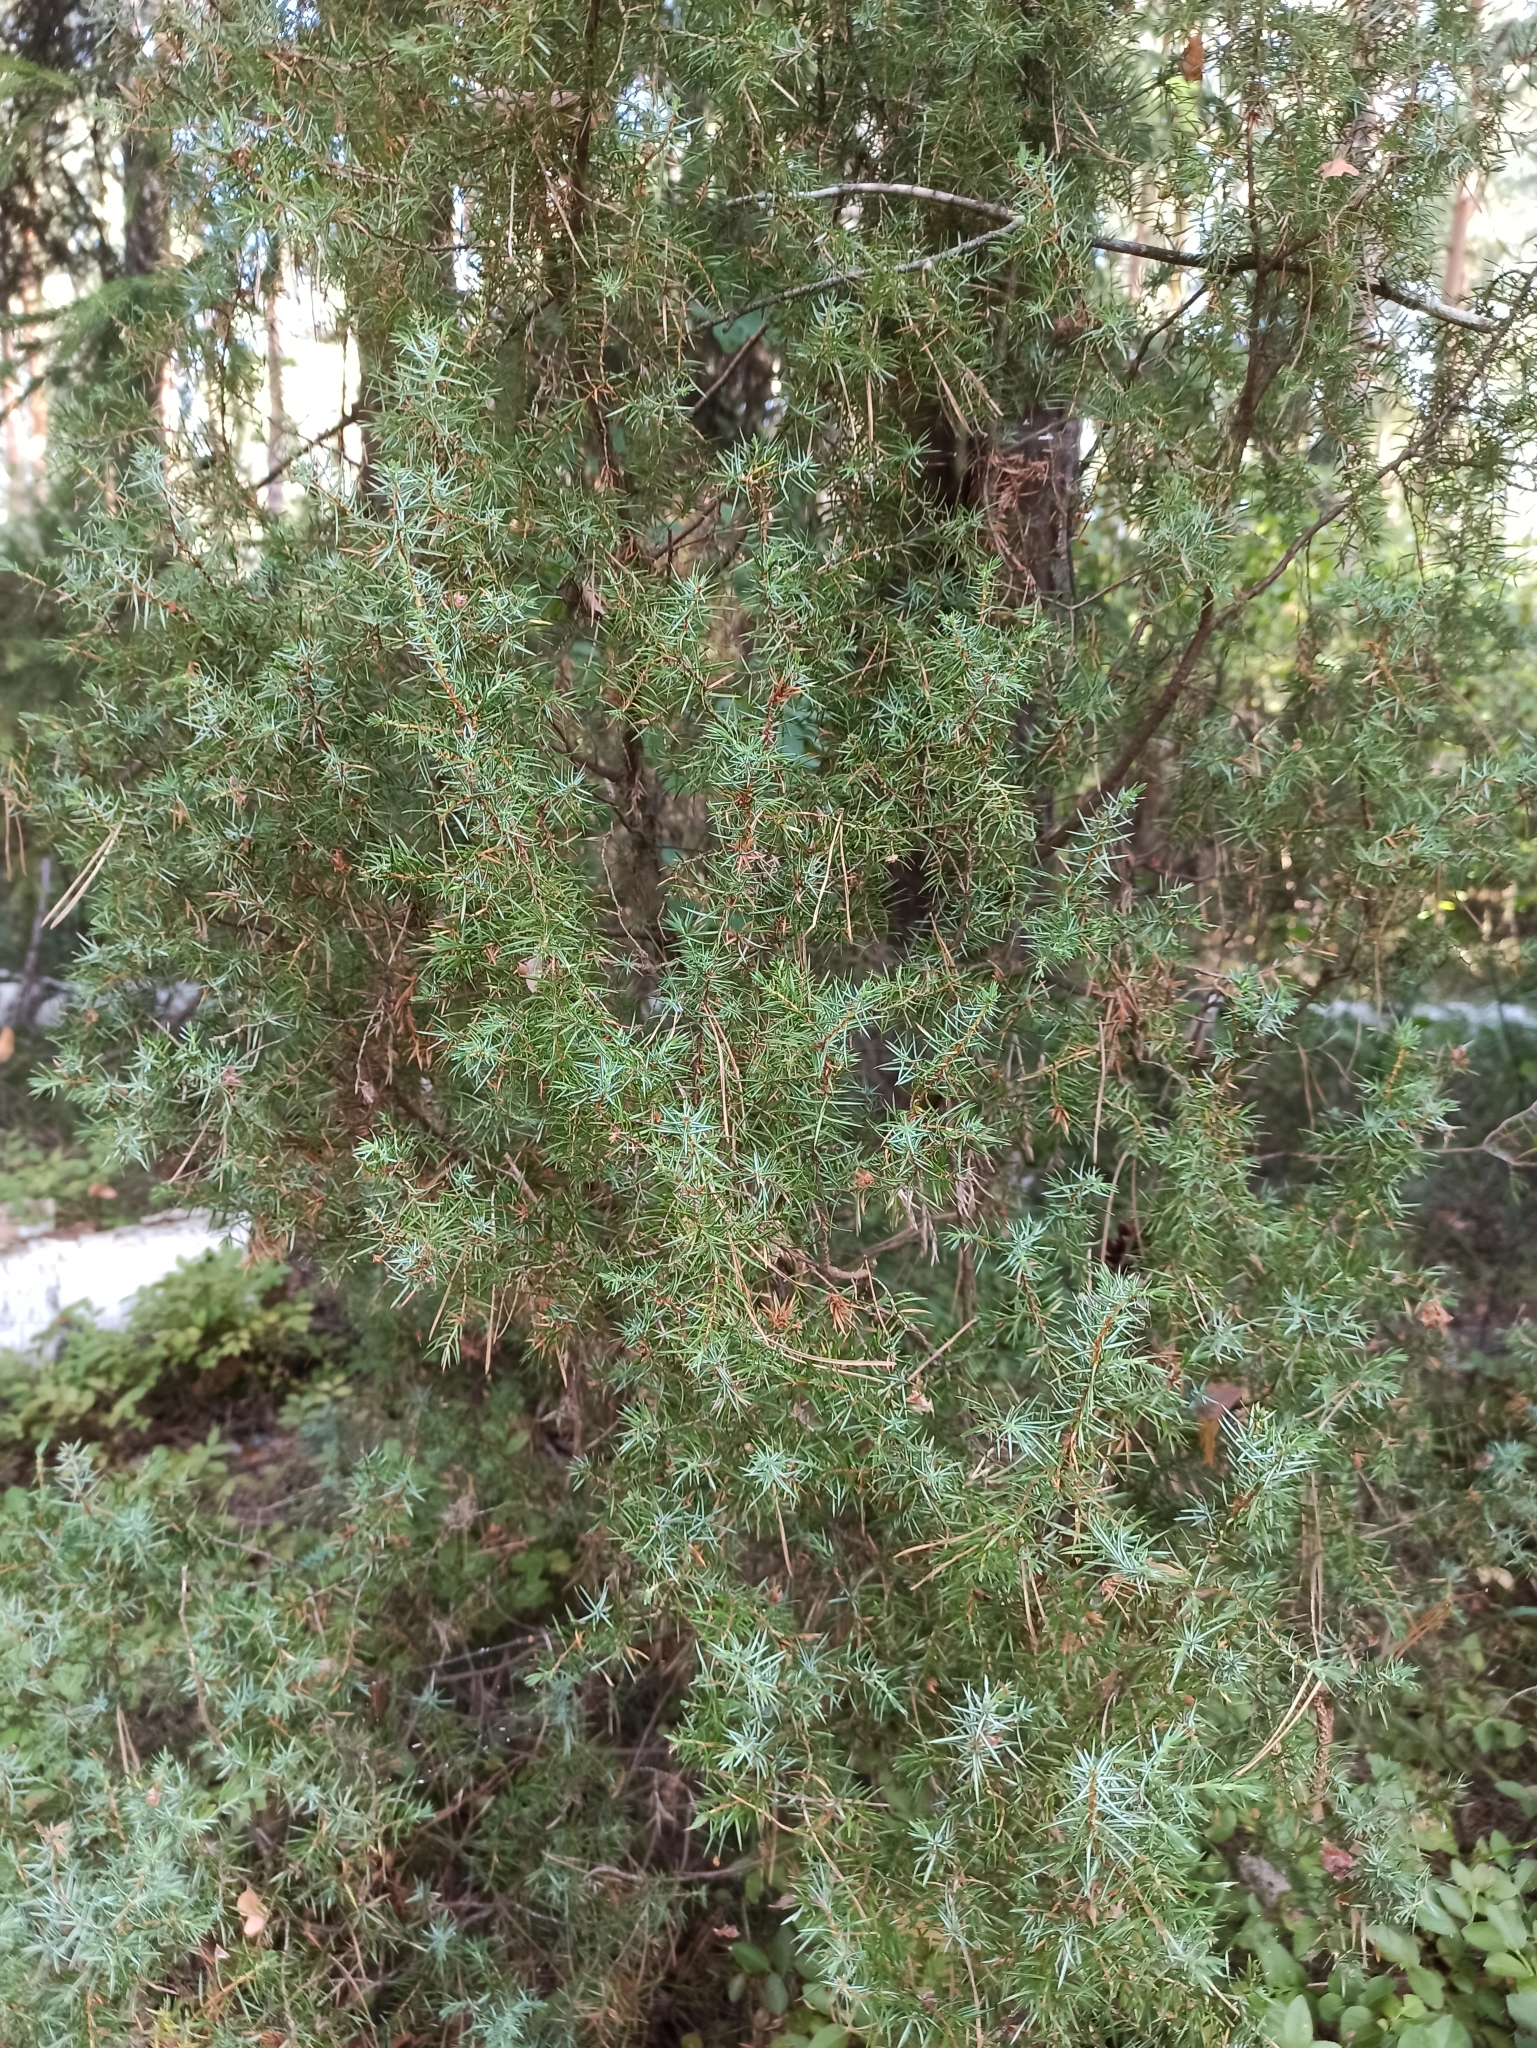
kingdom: Plantae
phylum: Tracheophyta
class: Pinopsida
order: Pinales
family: Cupressaceae
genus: Juniperus
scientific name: Juniperus communis
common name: Common juniper
